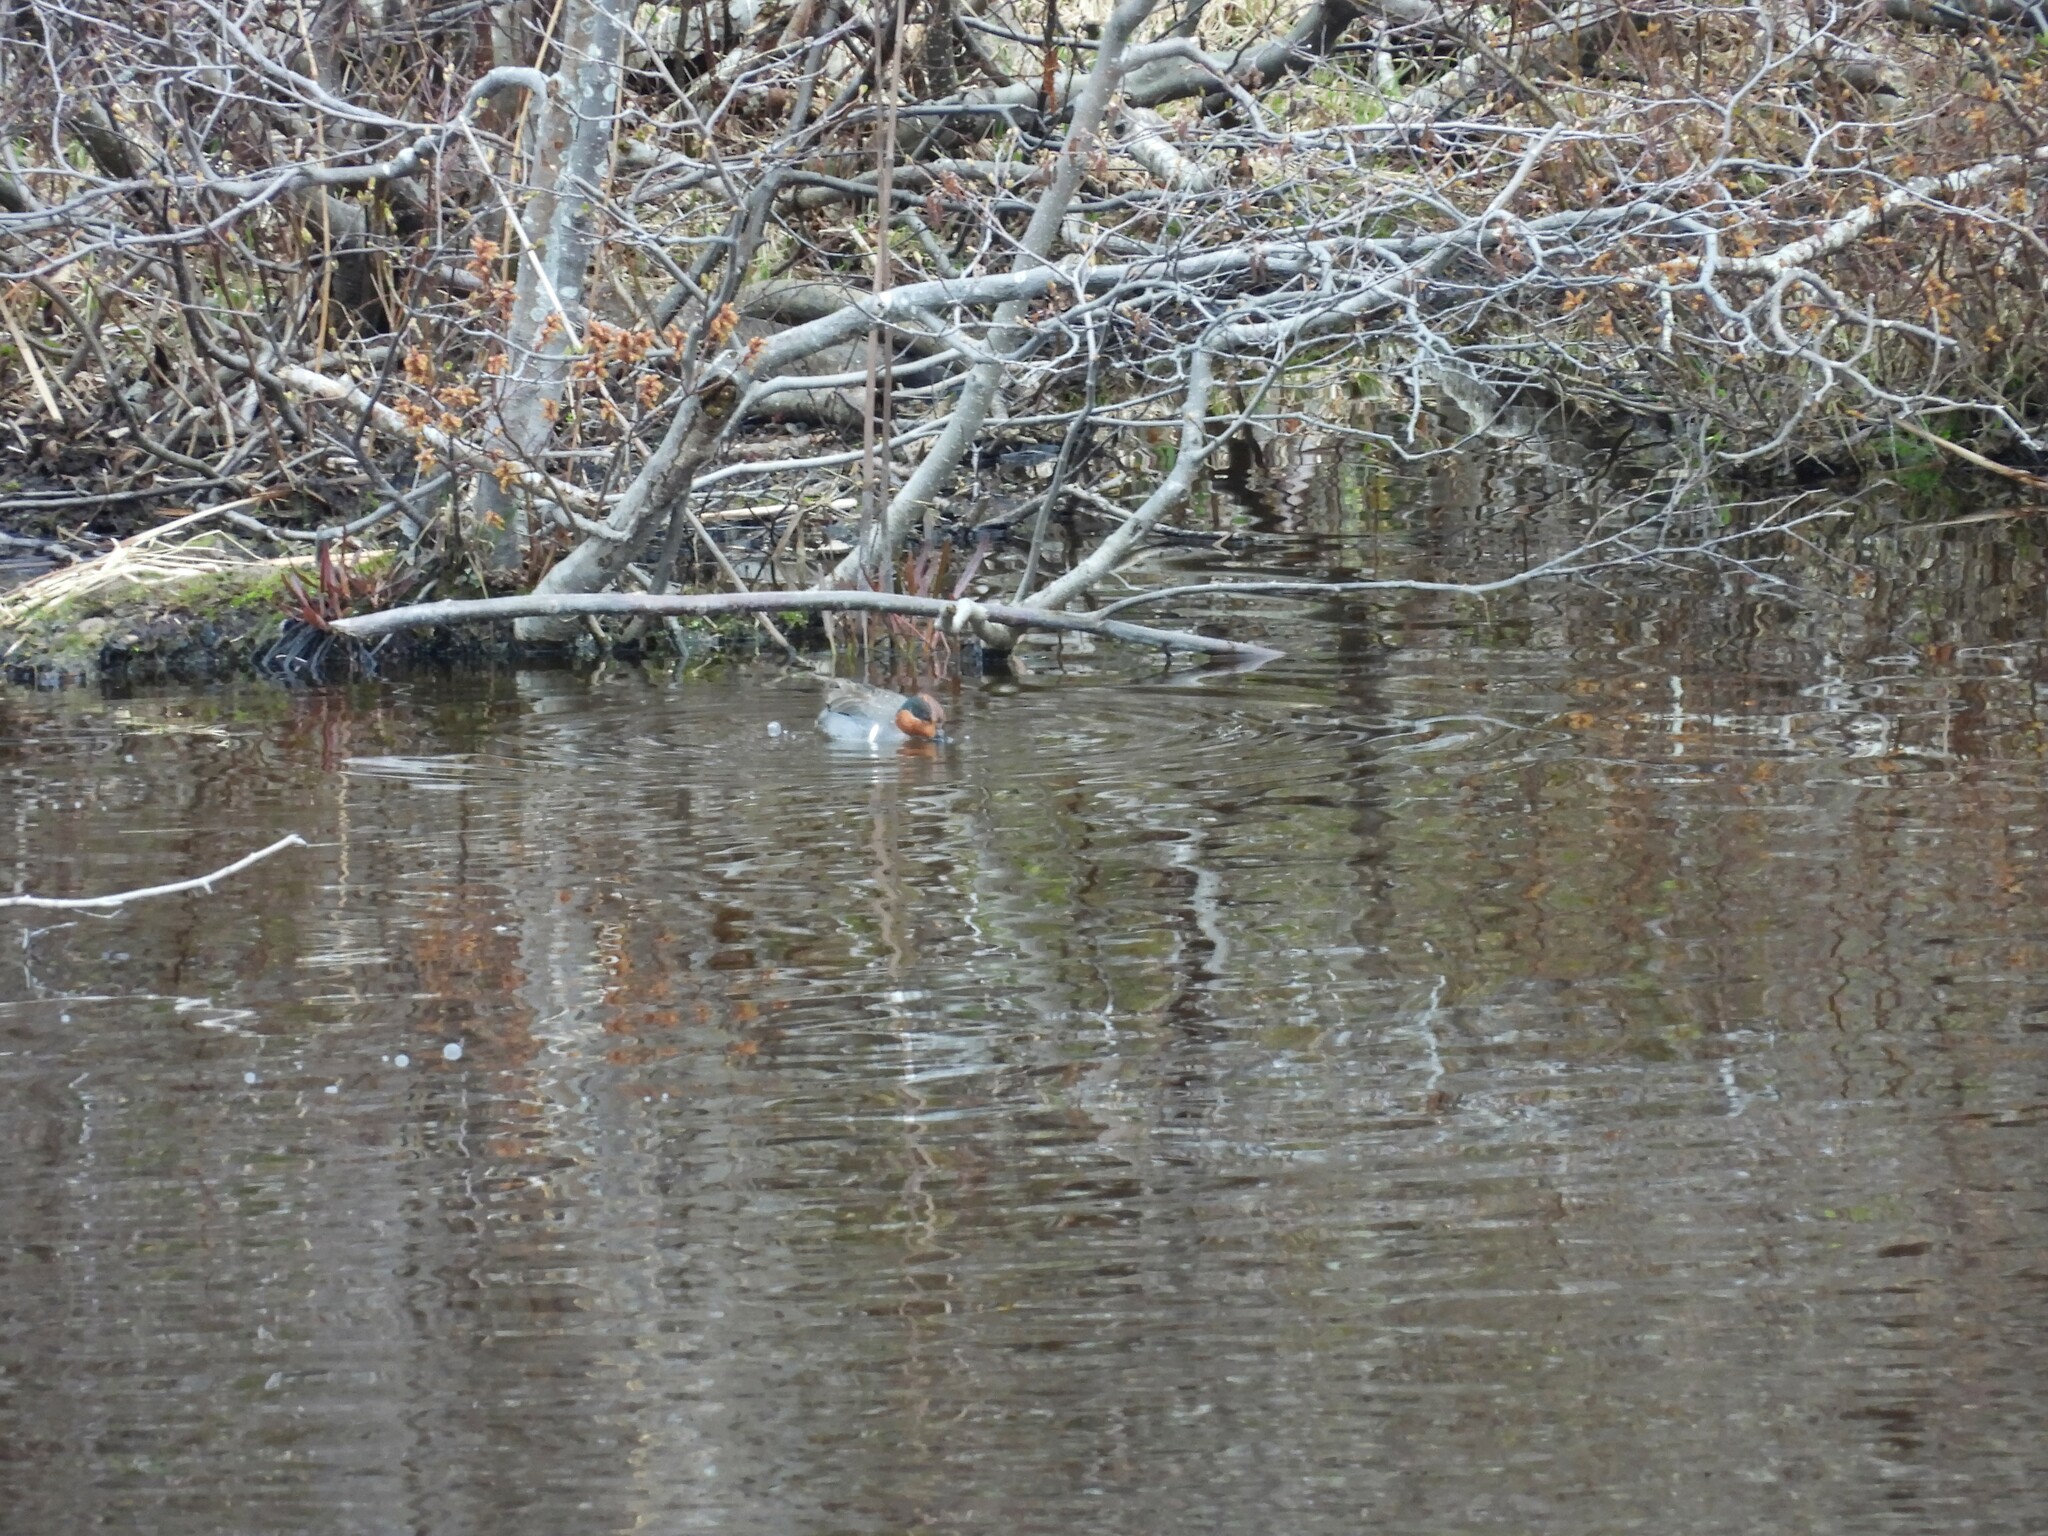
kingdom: Animalia
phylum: Chordata
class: Aves
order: Anseriformes
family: Anatidae
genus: Anas
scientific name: Anas crecca
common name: Eurasian teal
